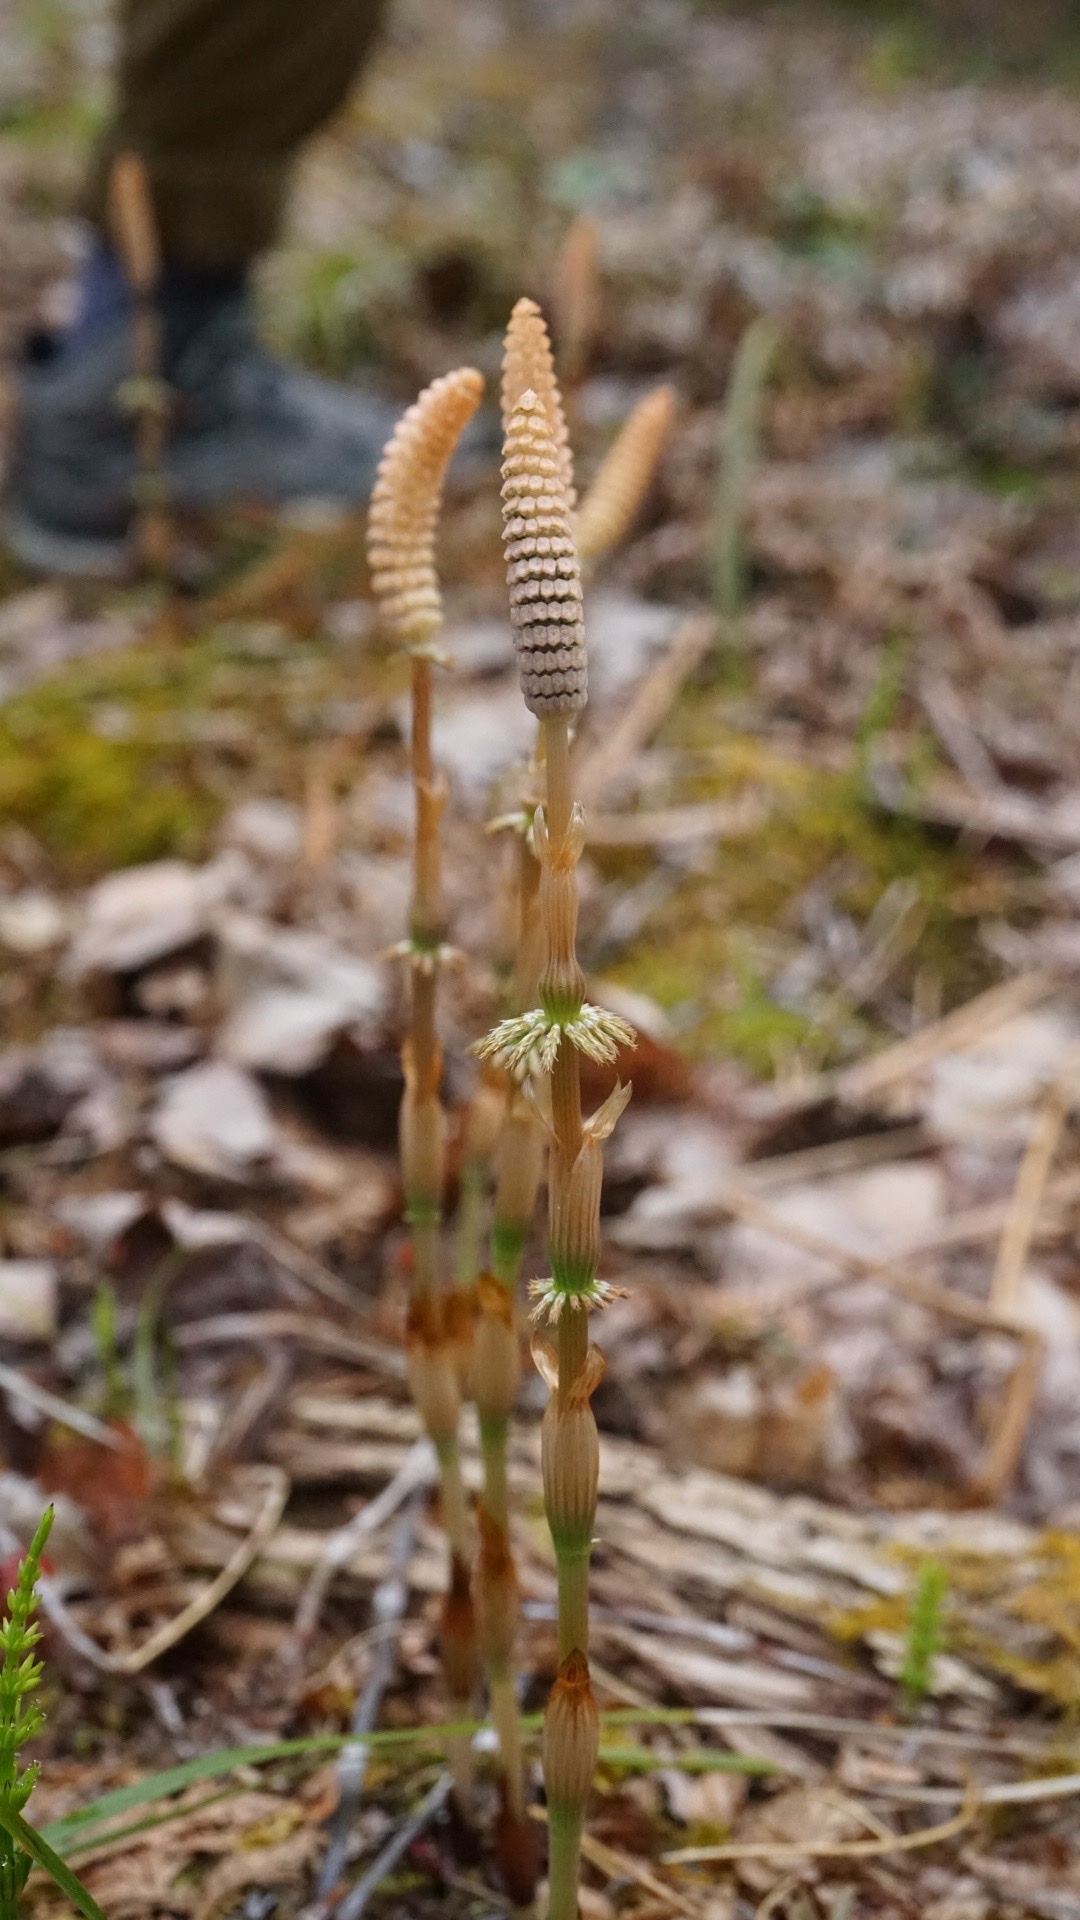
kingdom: Plantae
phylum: Tracheophyta
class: Polypodiopsida
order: Equisetales
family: Equisetaceae
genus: Equisetum
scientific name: Equisetum sylvaticum
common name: Wood horsetail
